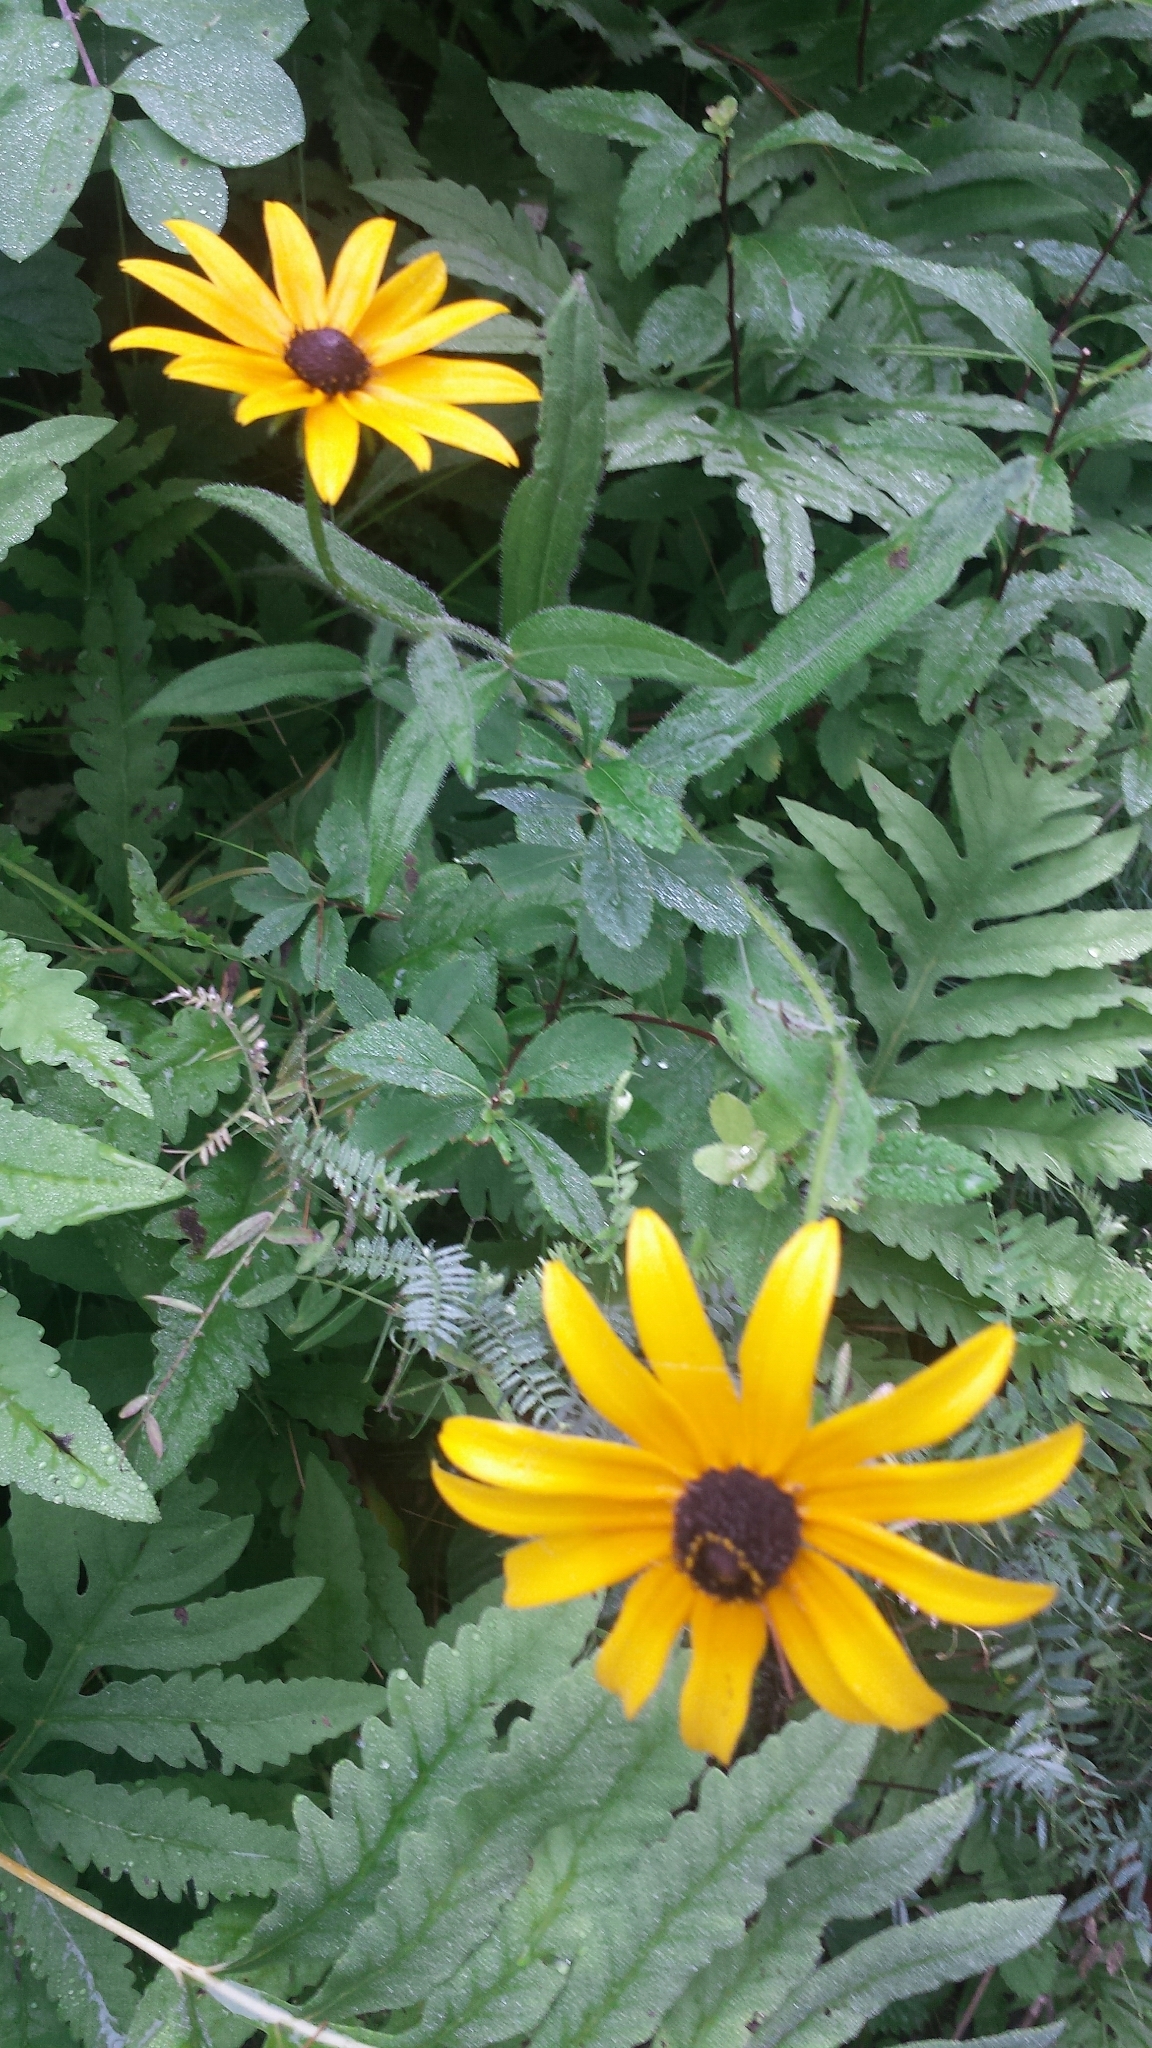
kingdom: Plantae
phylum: Tracheophyta
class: Magnoliopsida
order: Asterales
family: Asteraceae
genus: Rudbeckia
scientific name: Rudbeckia hirta
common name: Black-eyed-susan
